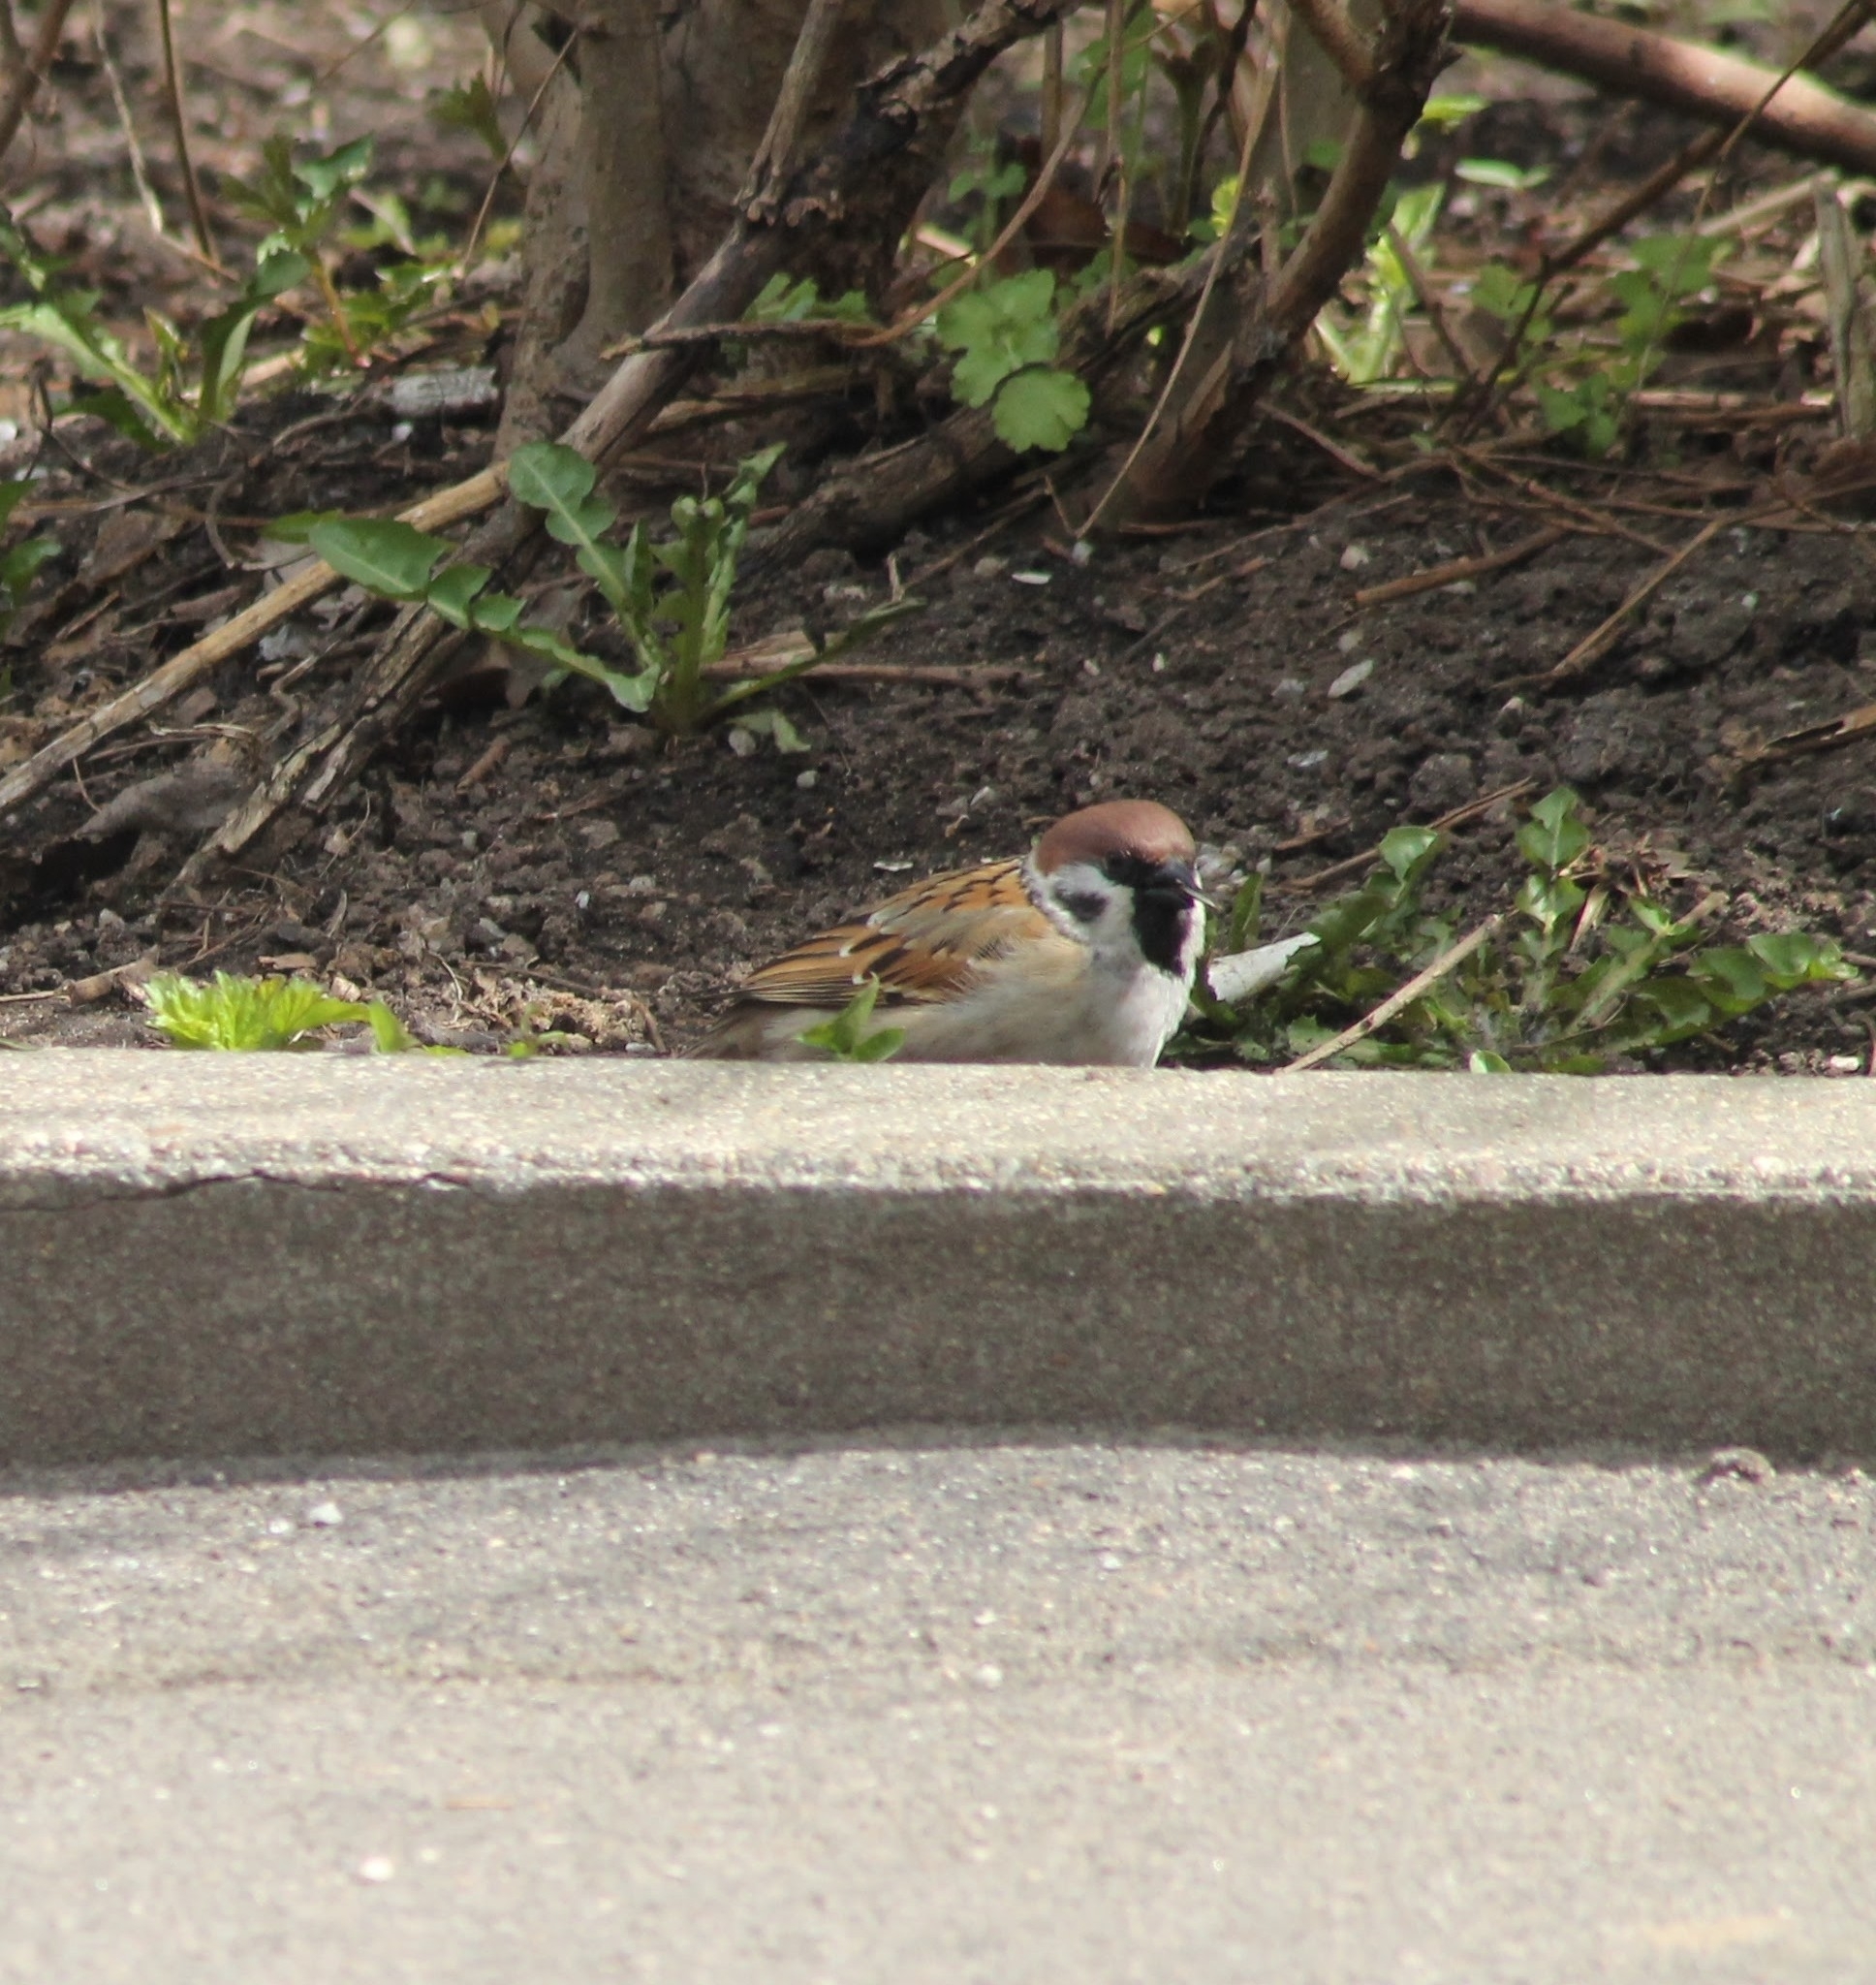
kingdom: Animalia
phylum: Chordata
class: Aves
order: Passeriformes
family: Passeridae
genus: Passer
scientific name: Passer montanus
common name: Eurasian tree sparrow
